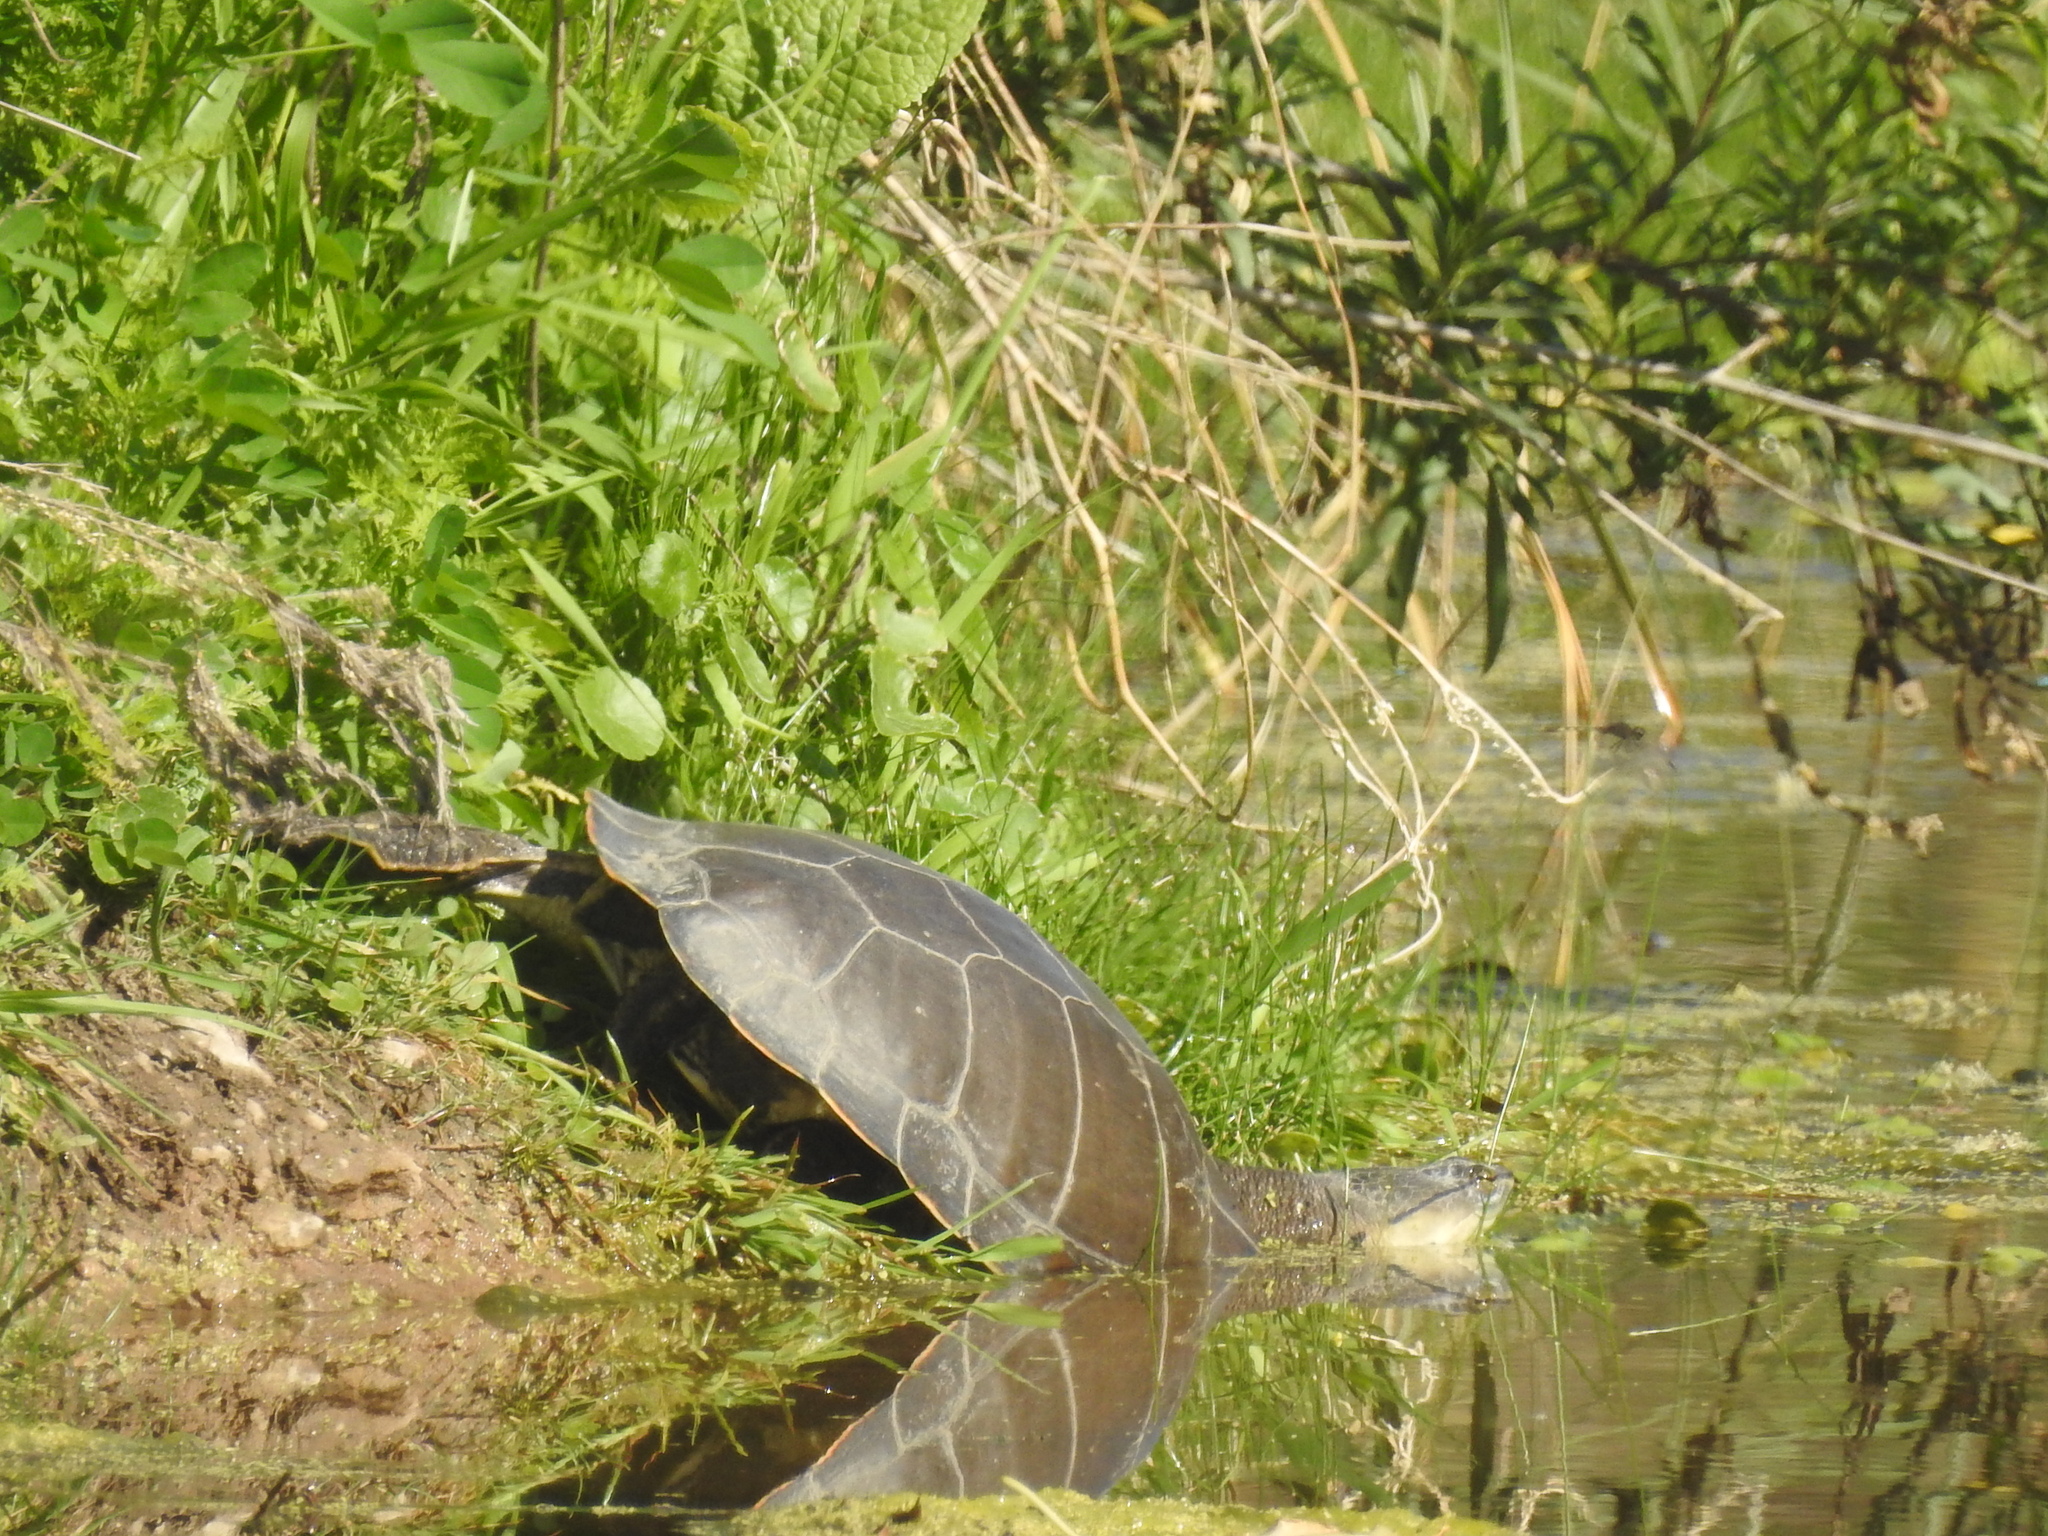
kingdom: Animalia
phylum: Chordata
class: Testudines
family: Chelidae
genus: Phrynops
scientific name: Phrynops hilarii
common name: Side-necked turtle of saint hillaire
